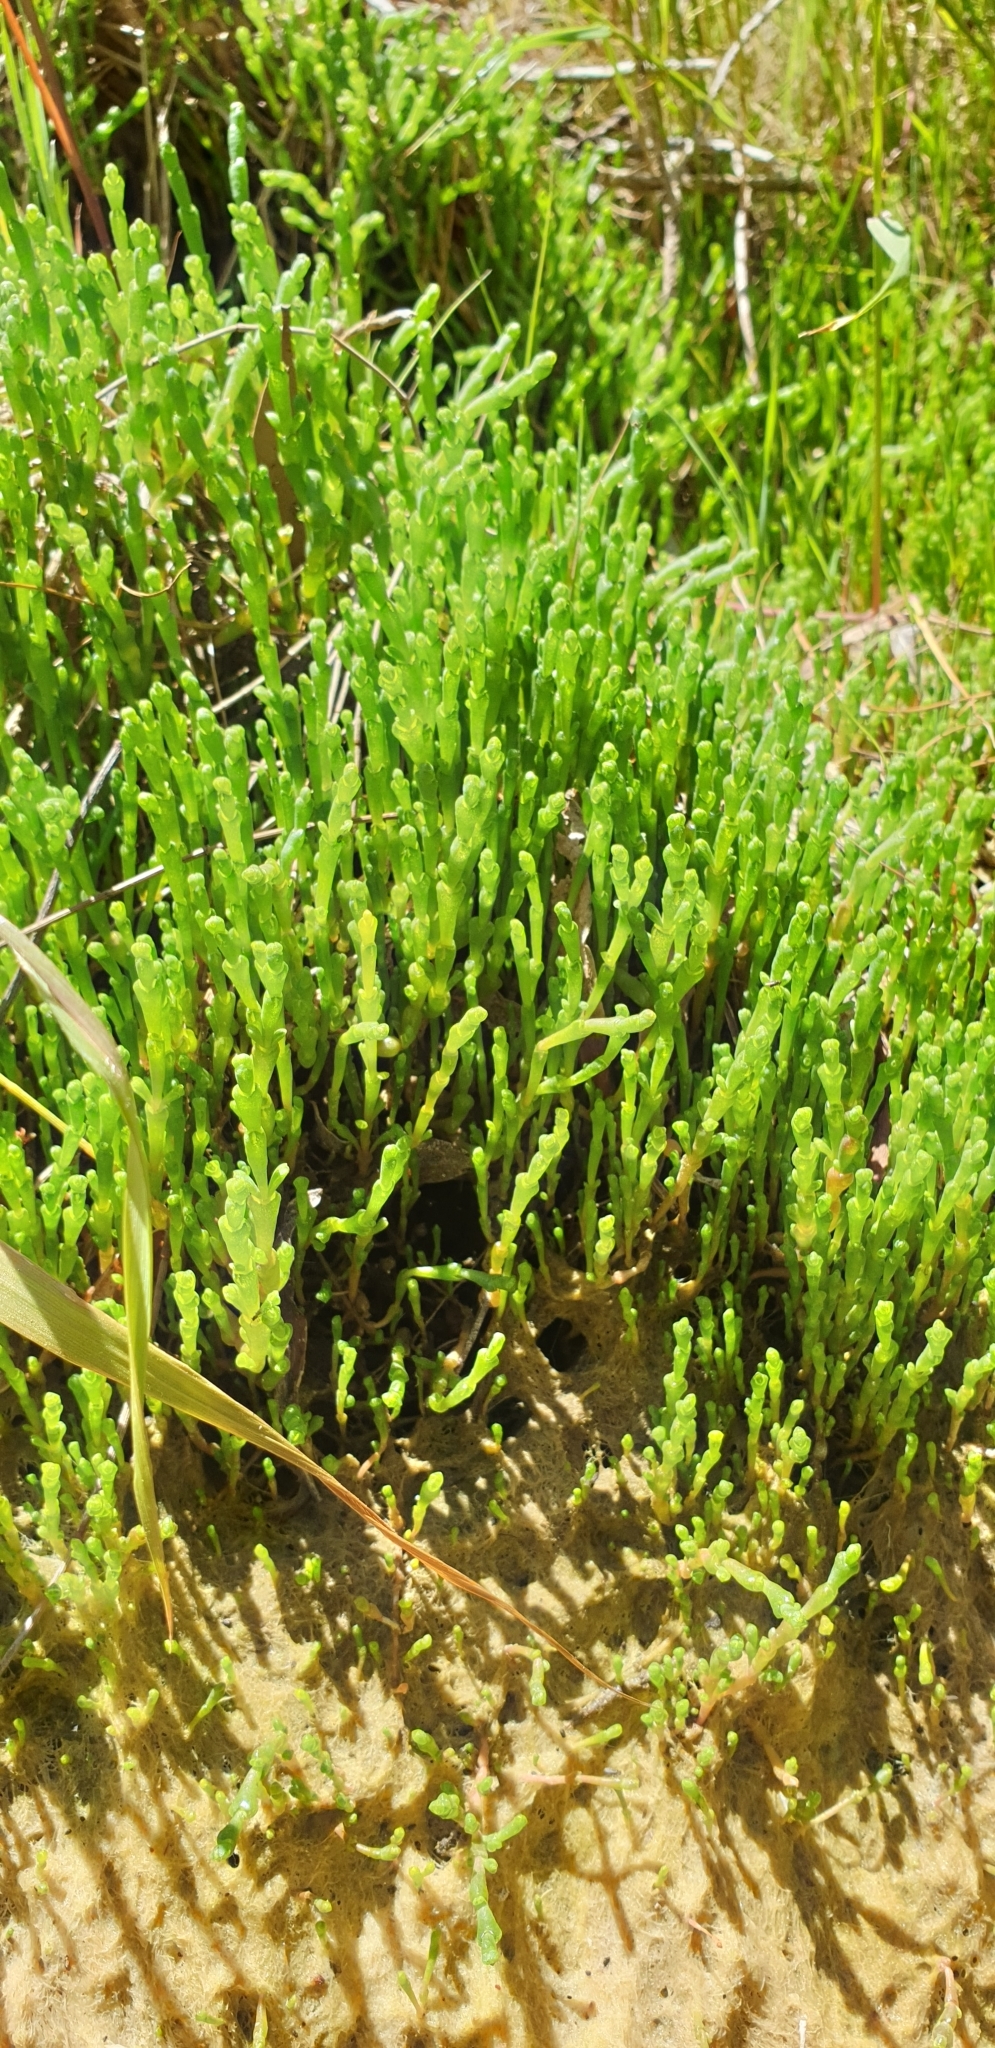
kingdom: Plantae
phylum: Tracheophyta
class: Magnoliopsida
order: Caryophyllales
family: Amaranthaceae
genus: Salicornia
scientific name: Salicornia quinqueflora
